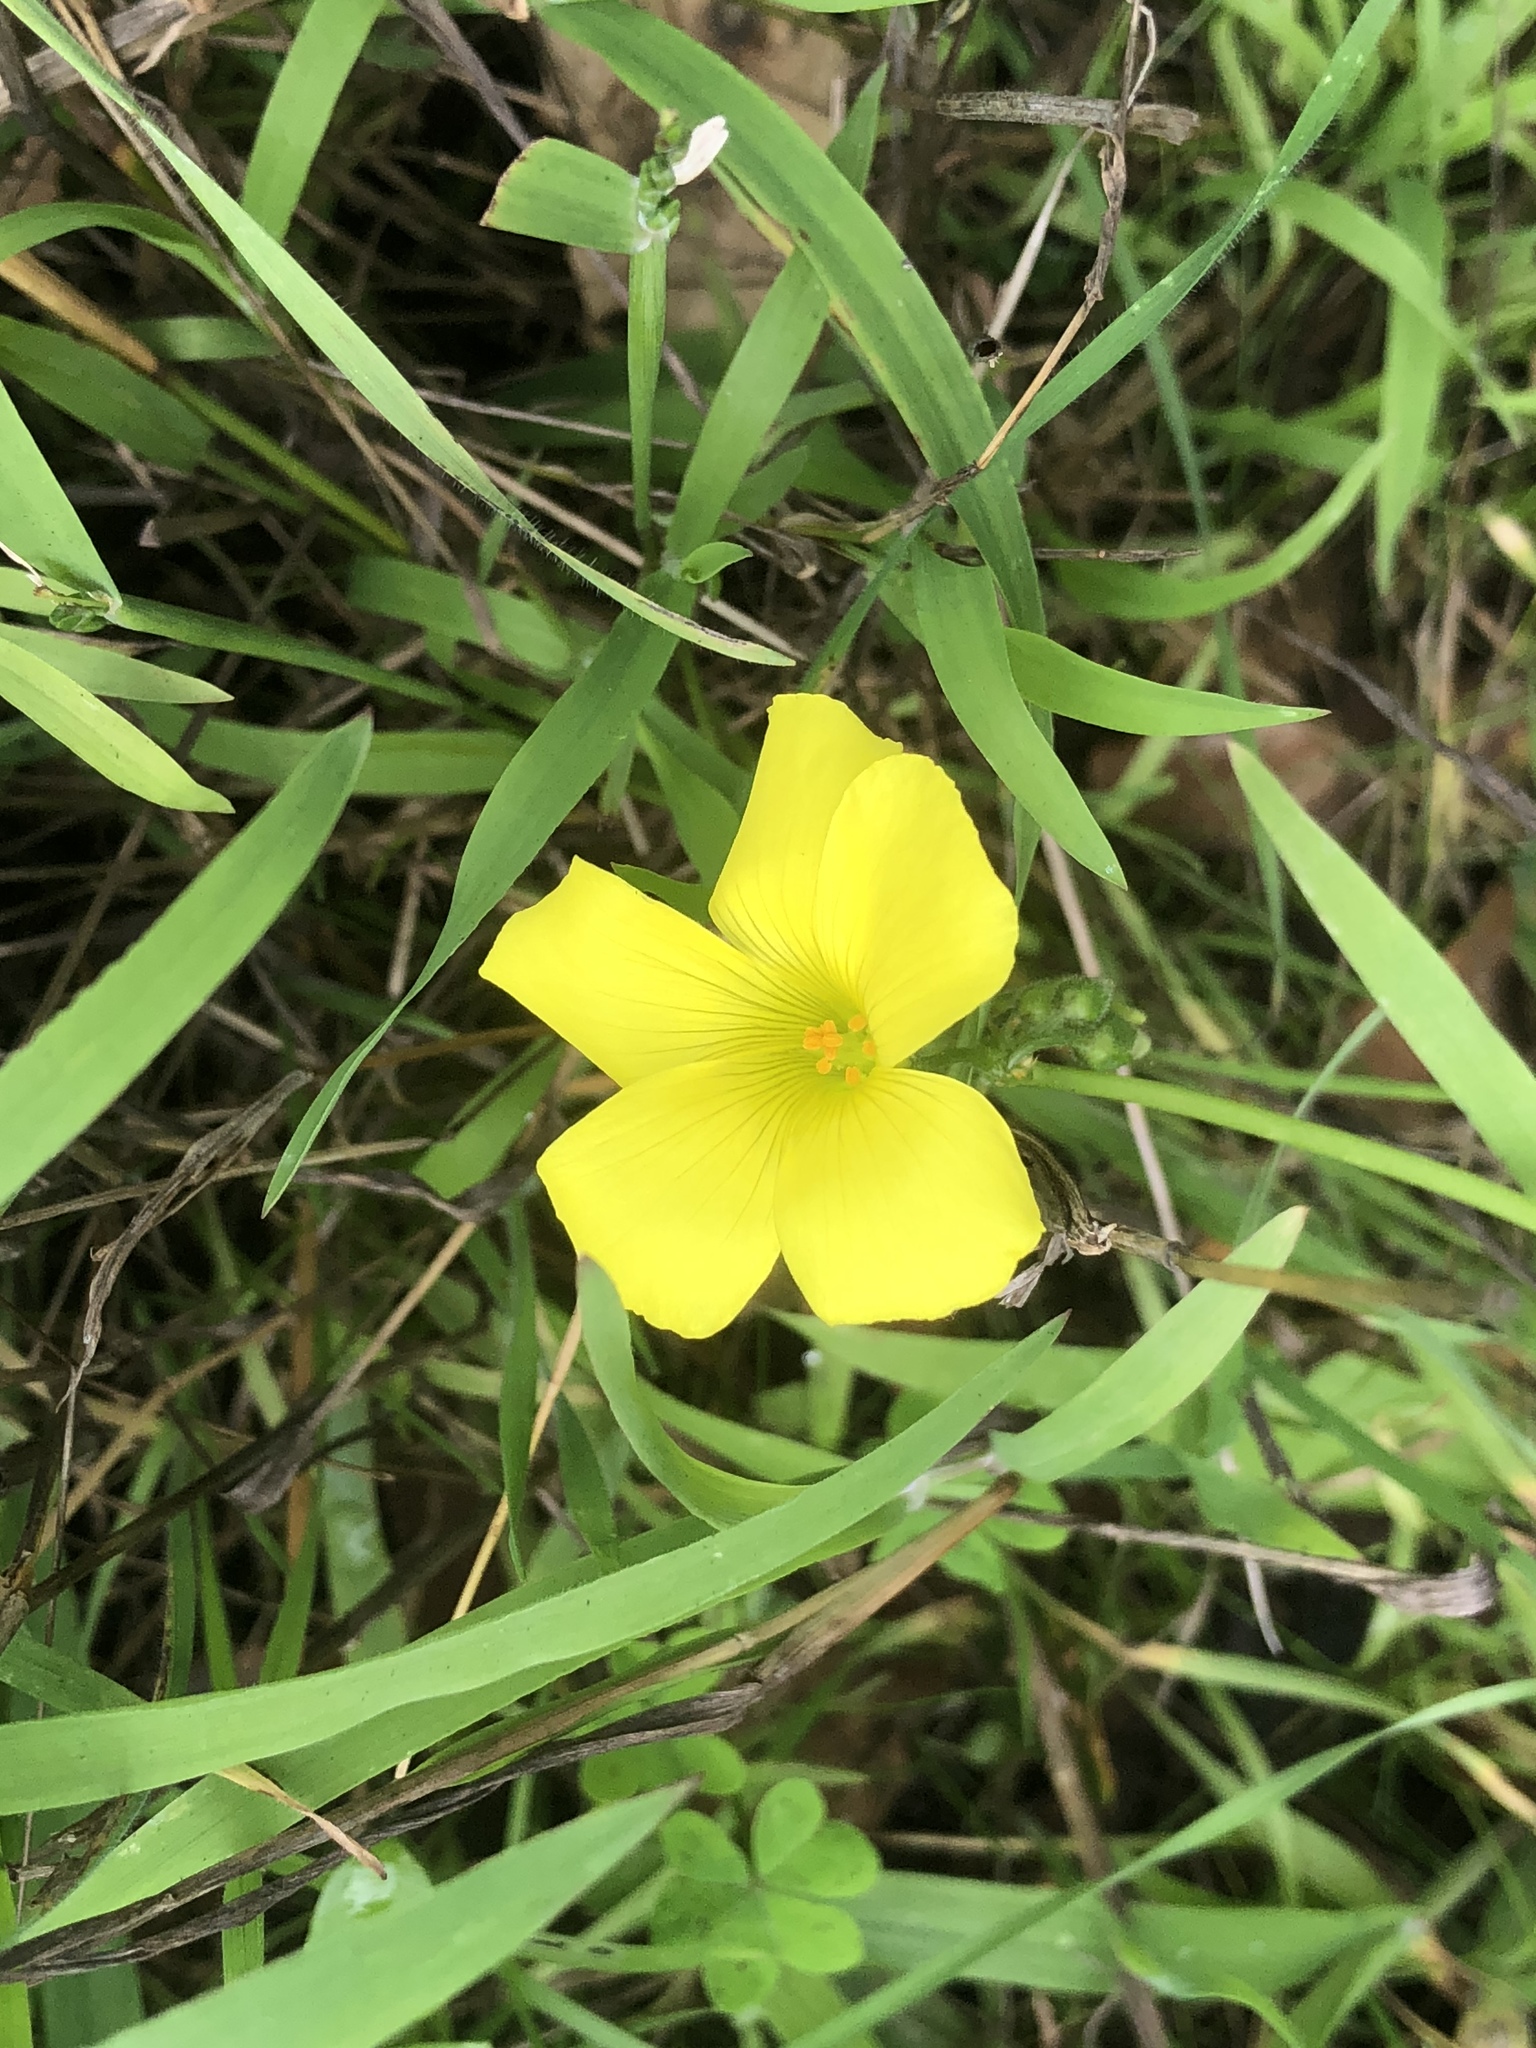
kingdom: Plantae
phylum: Tracheophyta
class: Magnoliopsida
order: Oxalidales
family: Oxalidaceae
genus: Oxalis
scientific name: Oxalis pes-caprae
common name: Bermuda-buttercup
